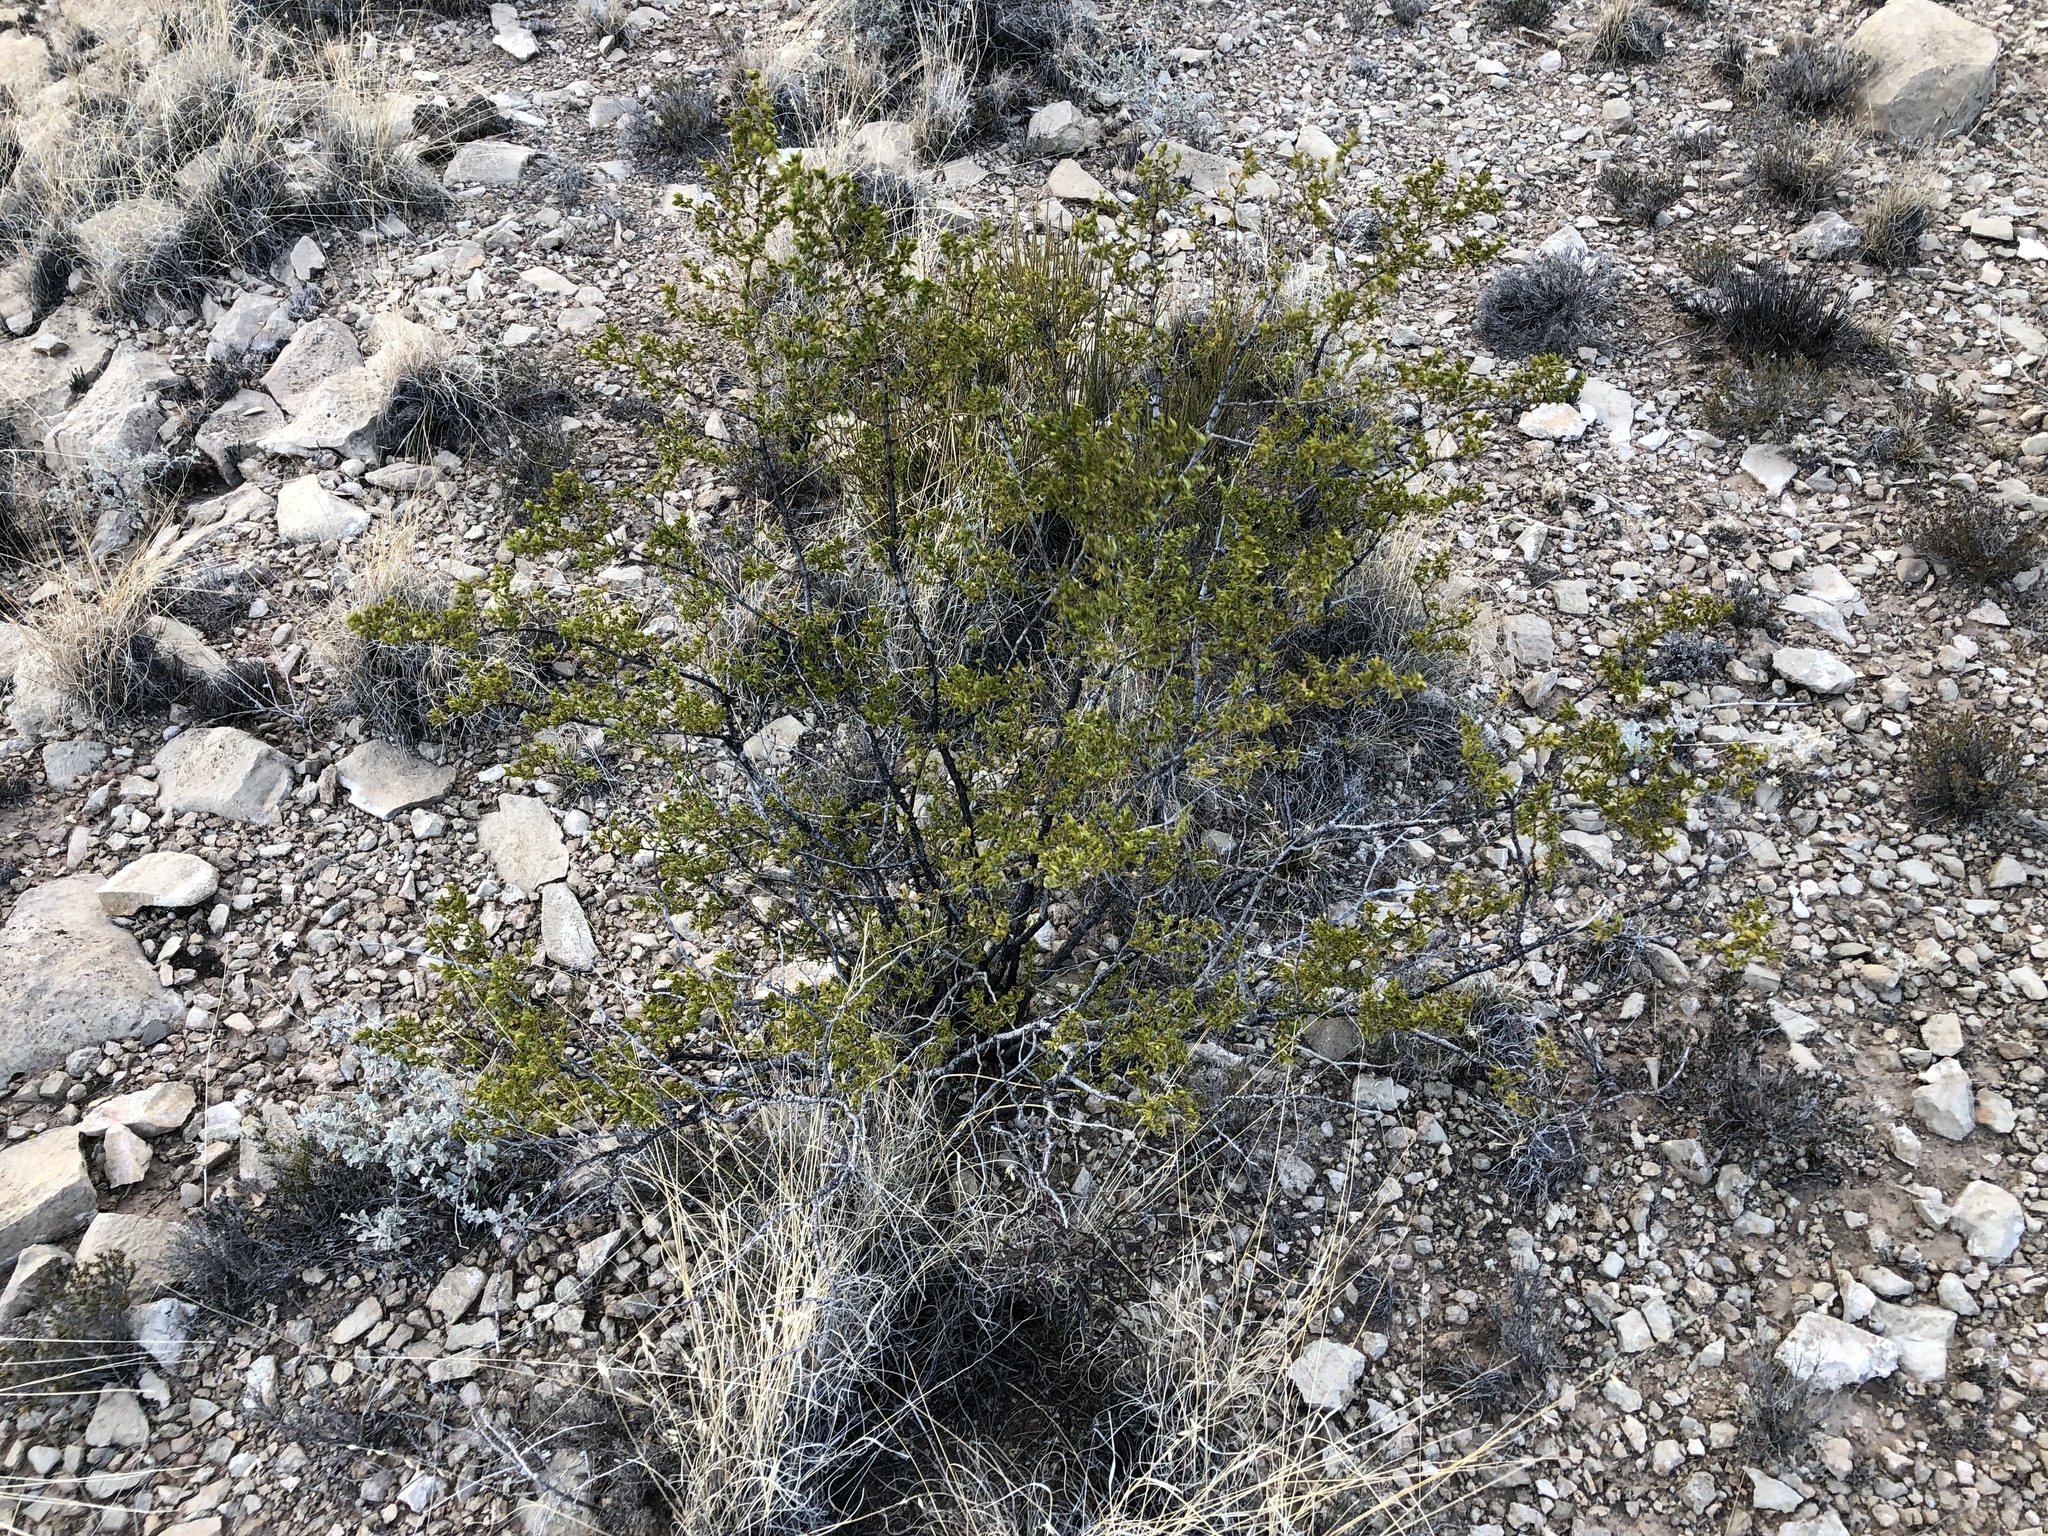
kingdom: Plantae
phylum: Tracheophyta
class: Magnoliopsida
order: Zygophyllales
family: Zygophyllaceae
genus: Larrea
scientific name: Larrea tridentata
